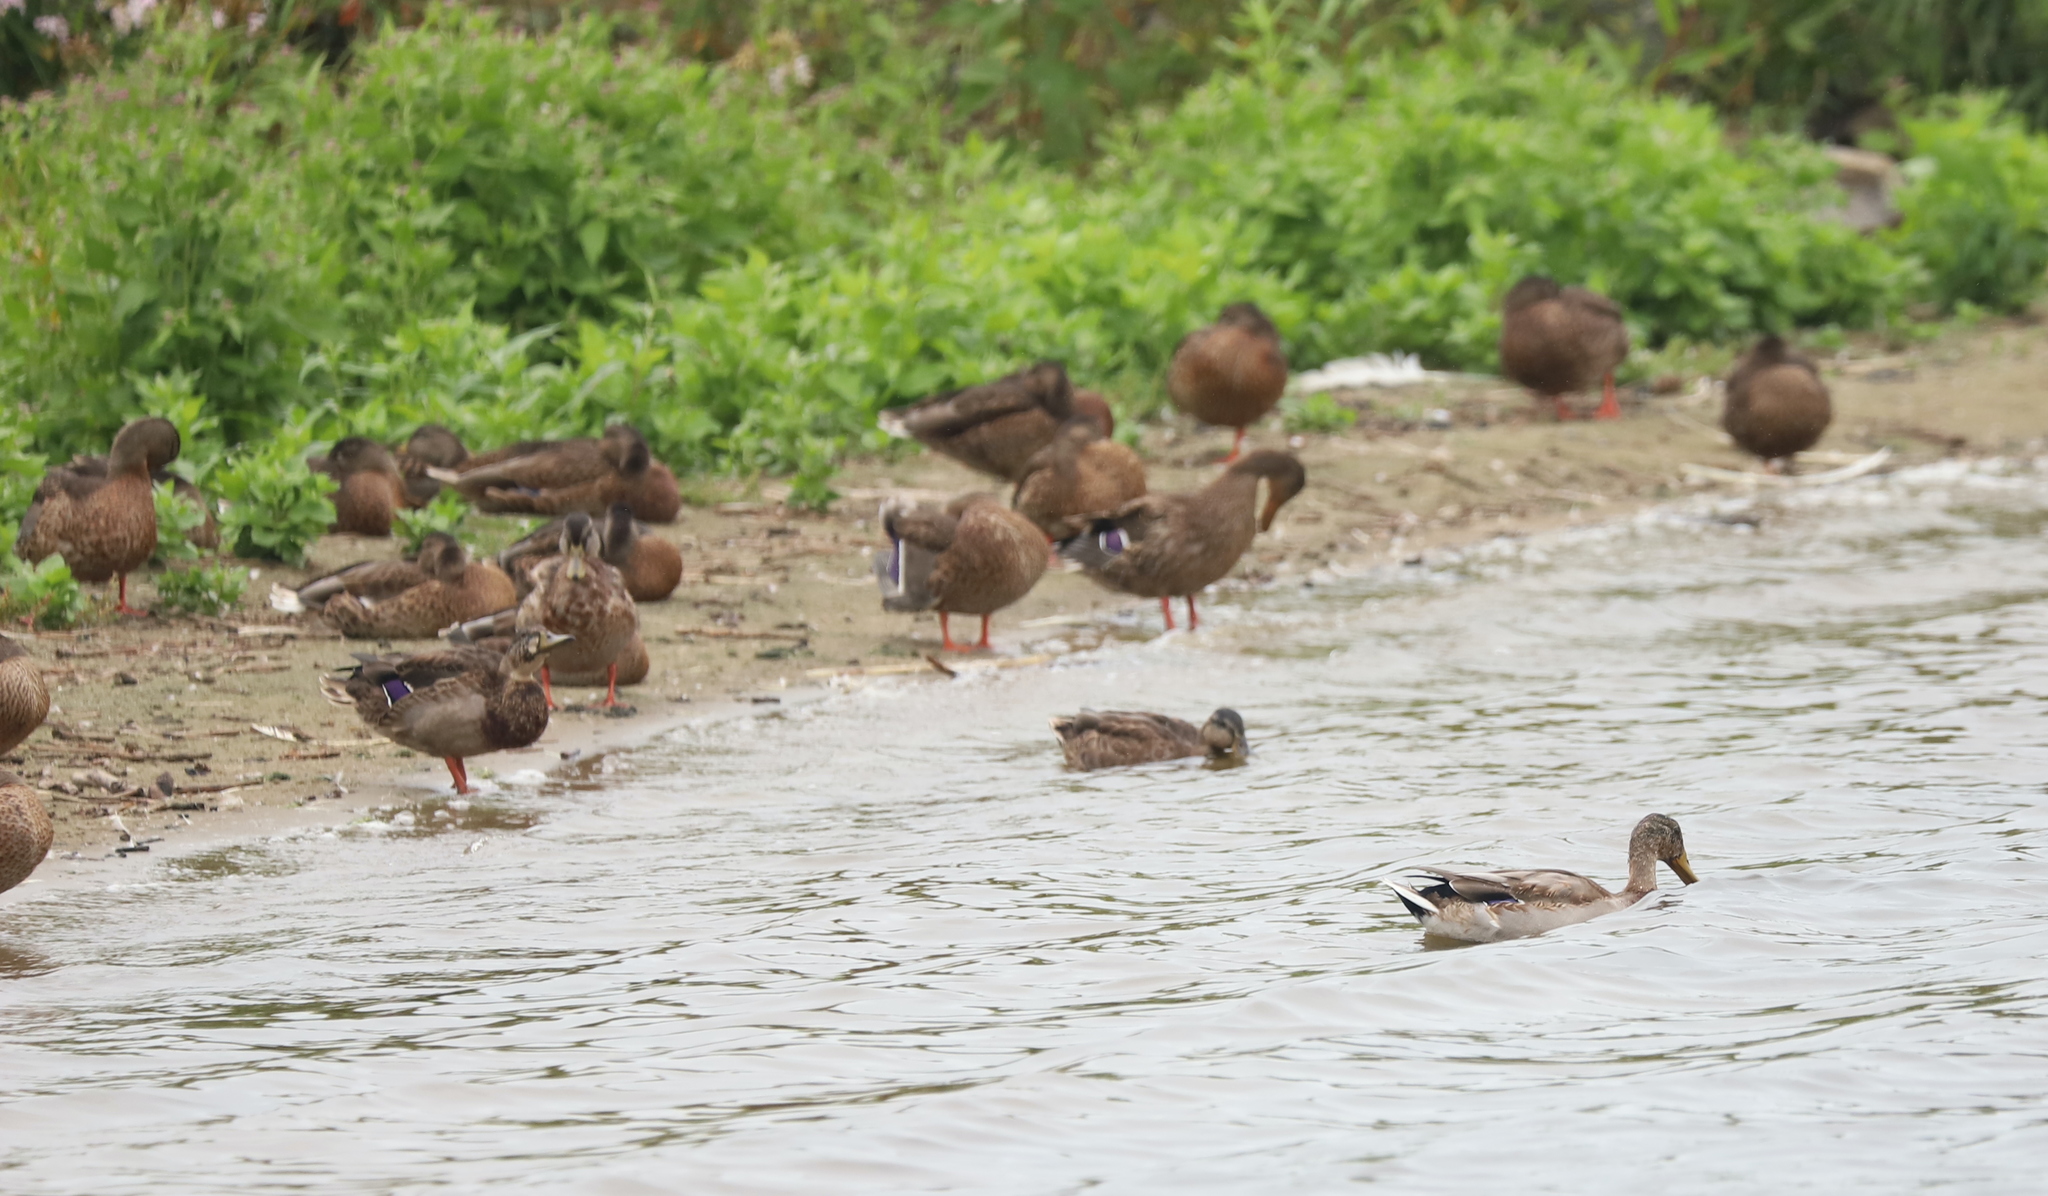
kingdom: Animalia
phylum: Chordata
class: Aves
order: Anseriformes
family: Anatidae
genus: Anas
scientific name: Anas platyrhynchos
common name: Mallard
